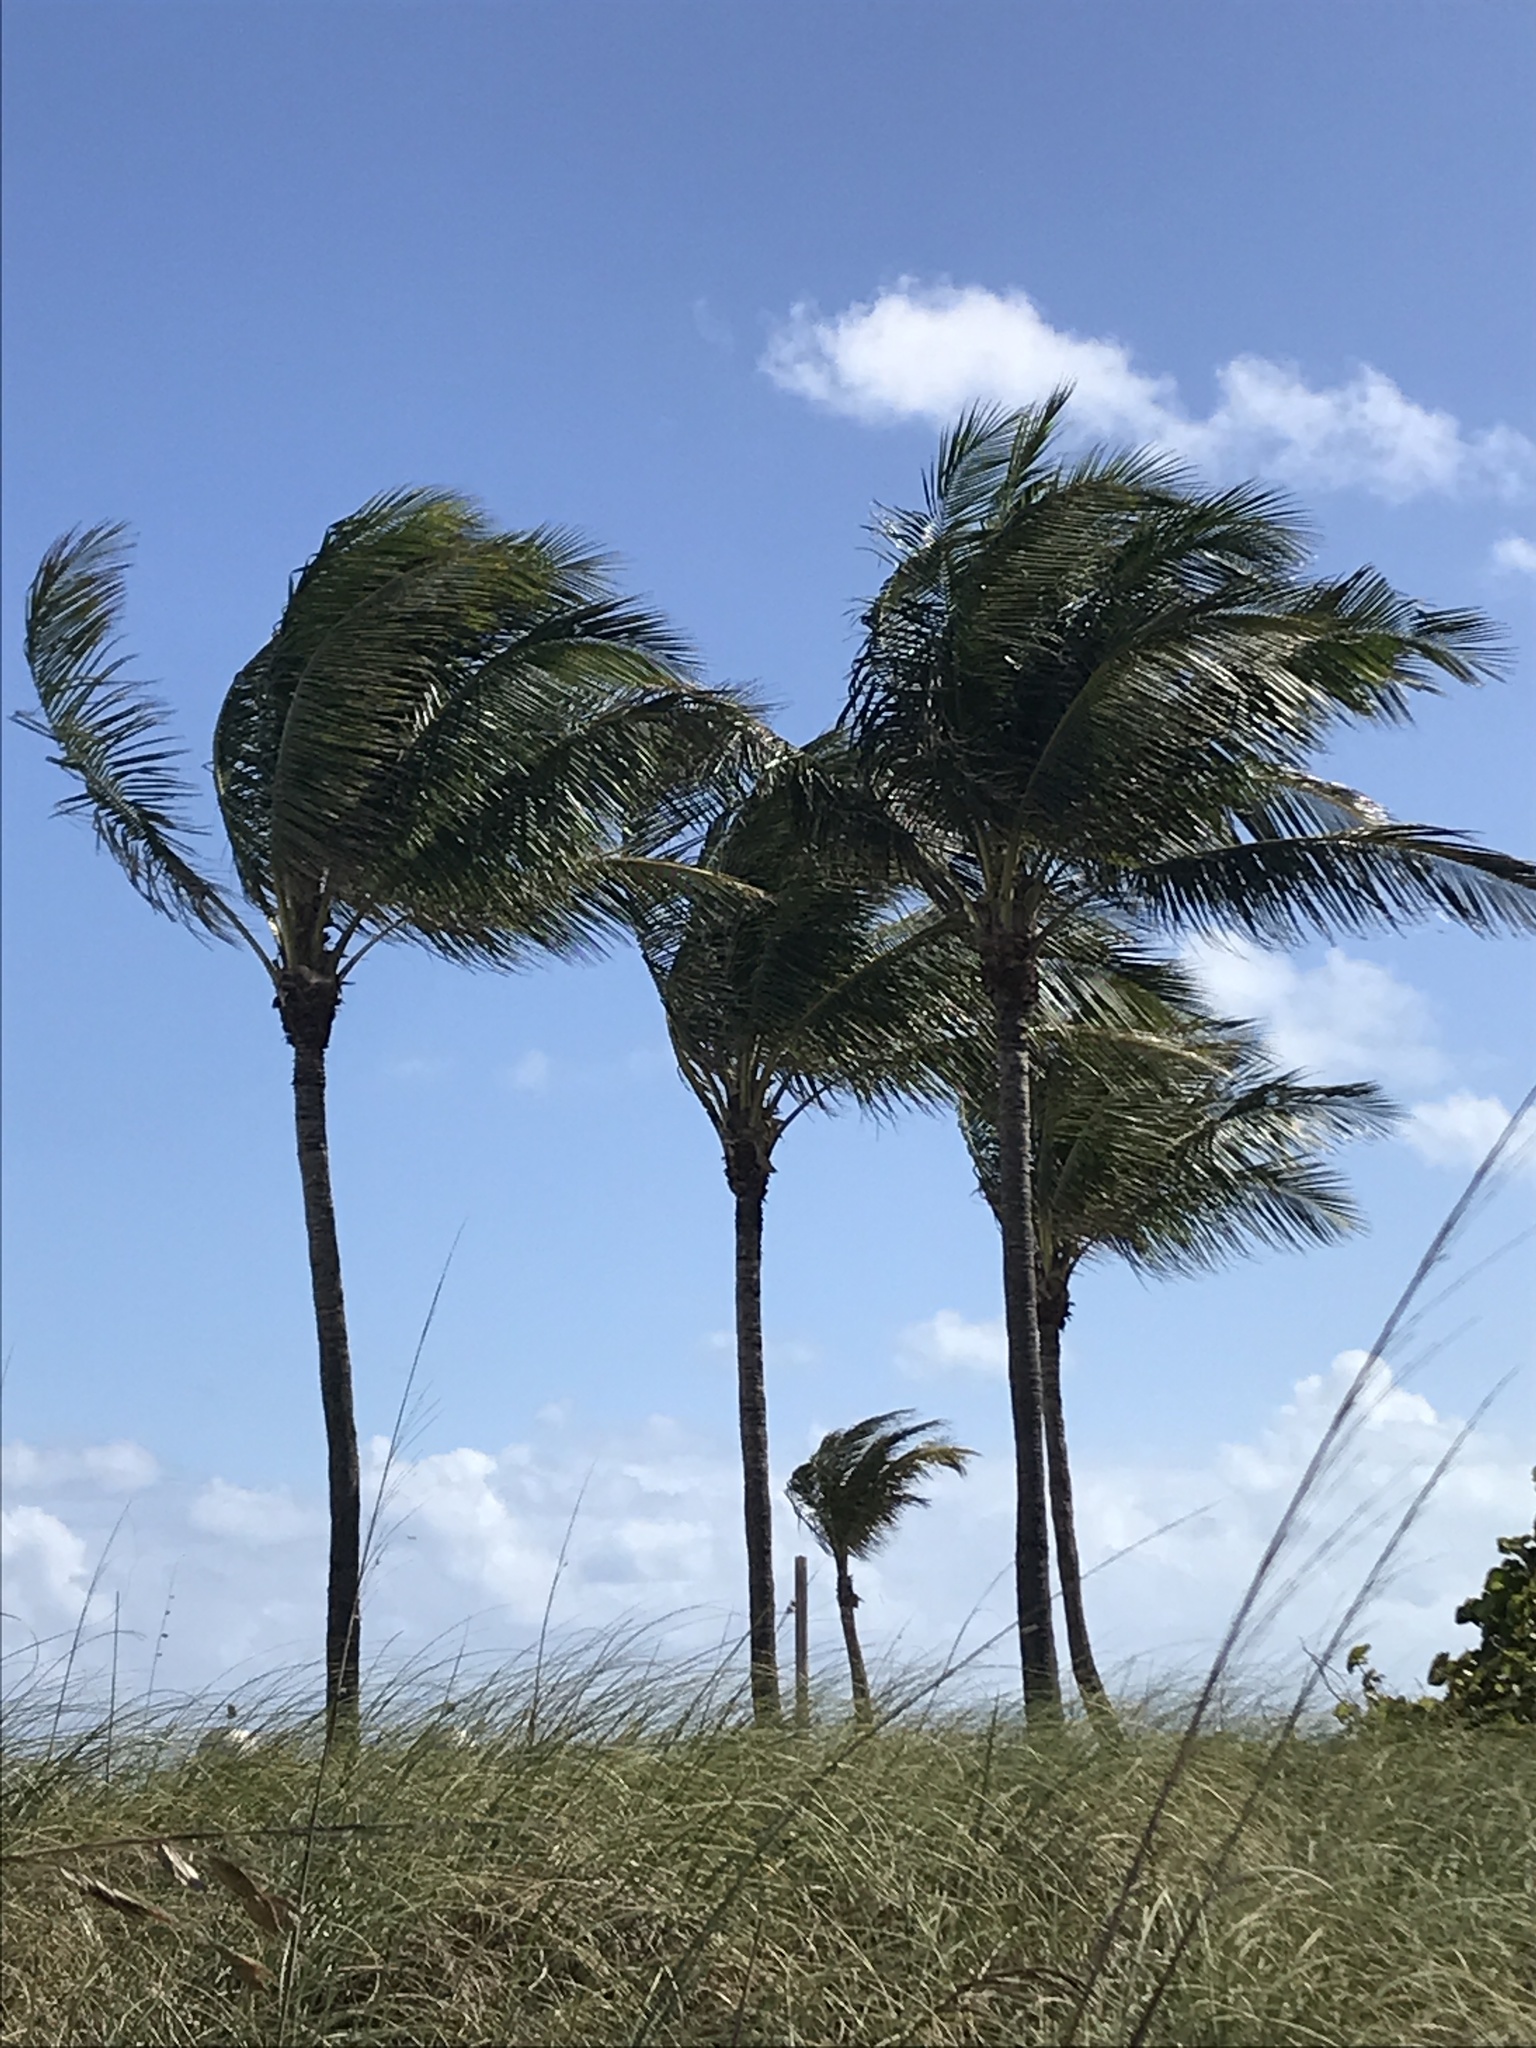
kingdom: Plantae
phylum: Tracheophyta
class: Liliopsida
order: Arecales
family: Arecaceae
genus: Cocos
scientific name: Cocos nucifera
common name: Coconut palm
